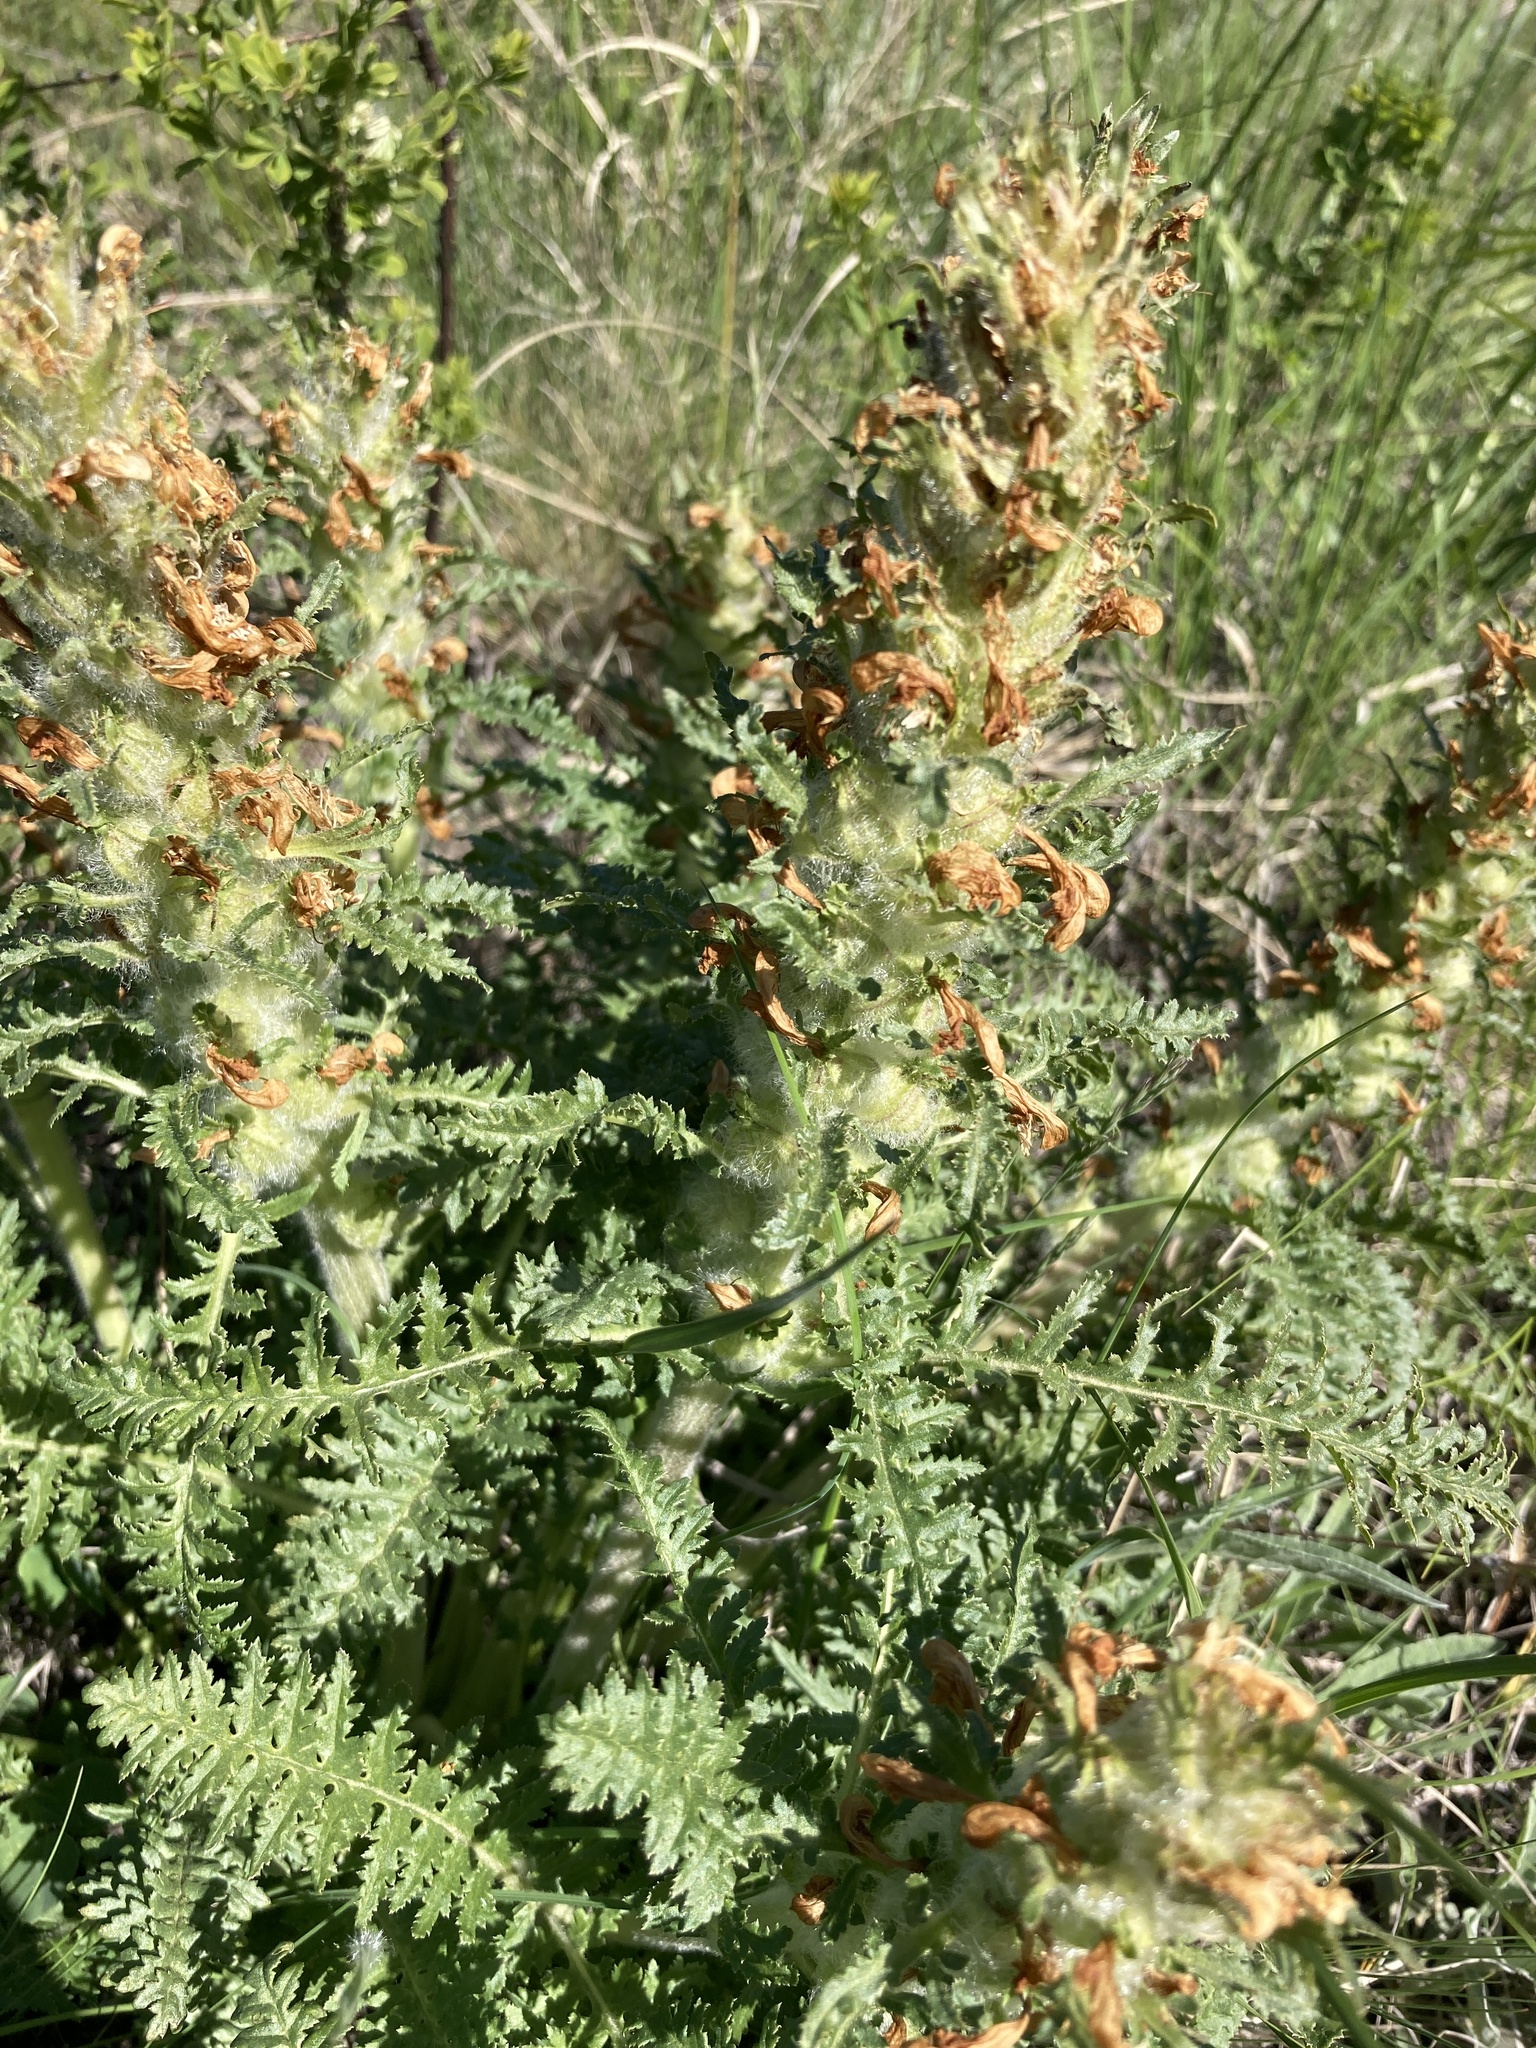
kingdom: Plantae
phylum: Tracheophyta
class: Magnoliopsida
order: Lamiales
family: Orobanchaceae
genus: Pedicularis
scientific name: Pedicularis dasystachys
